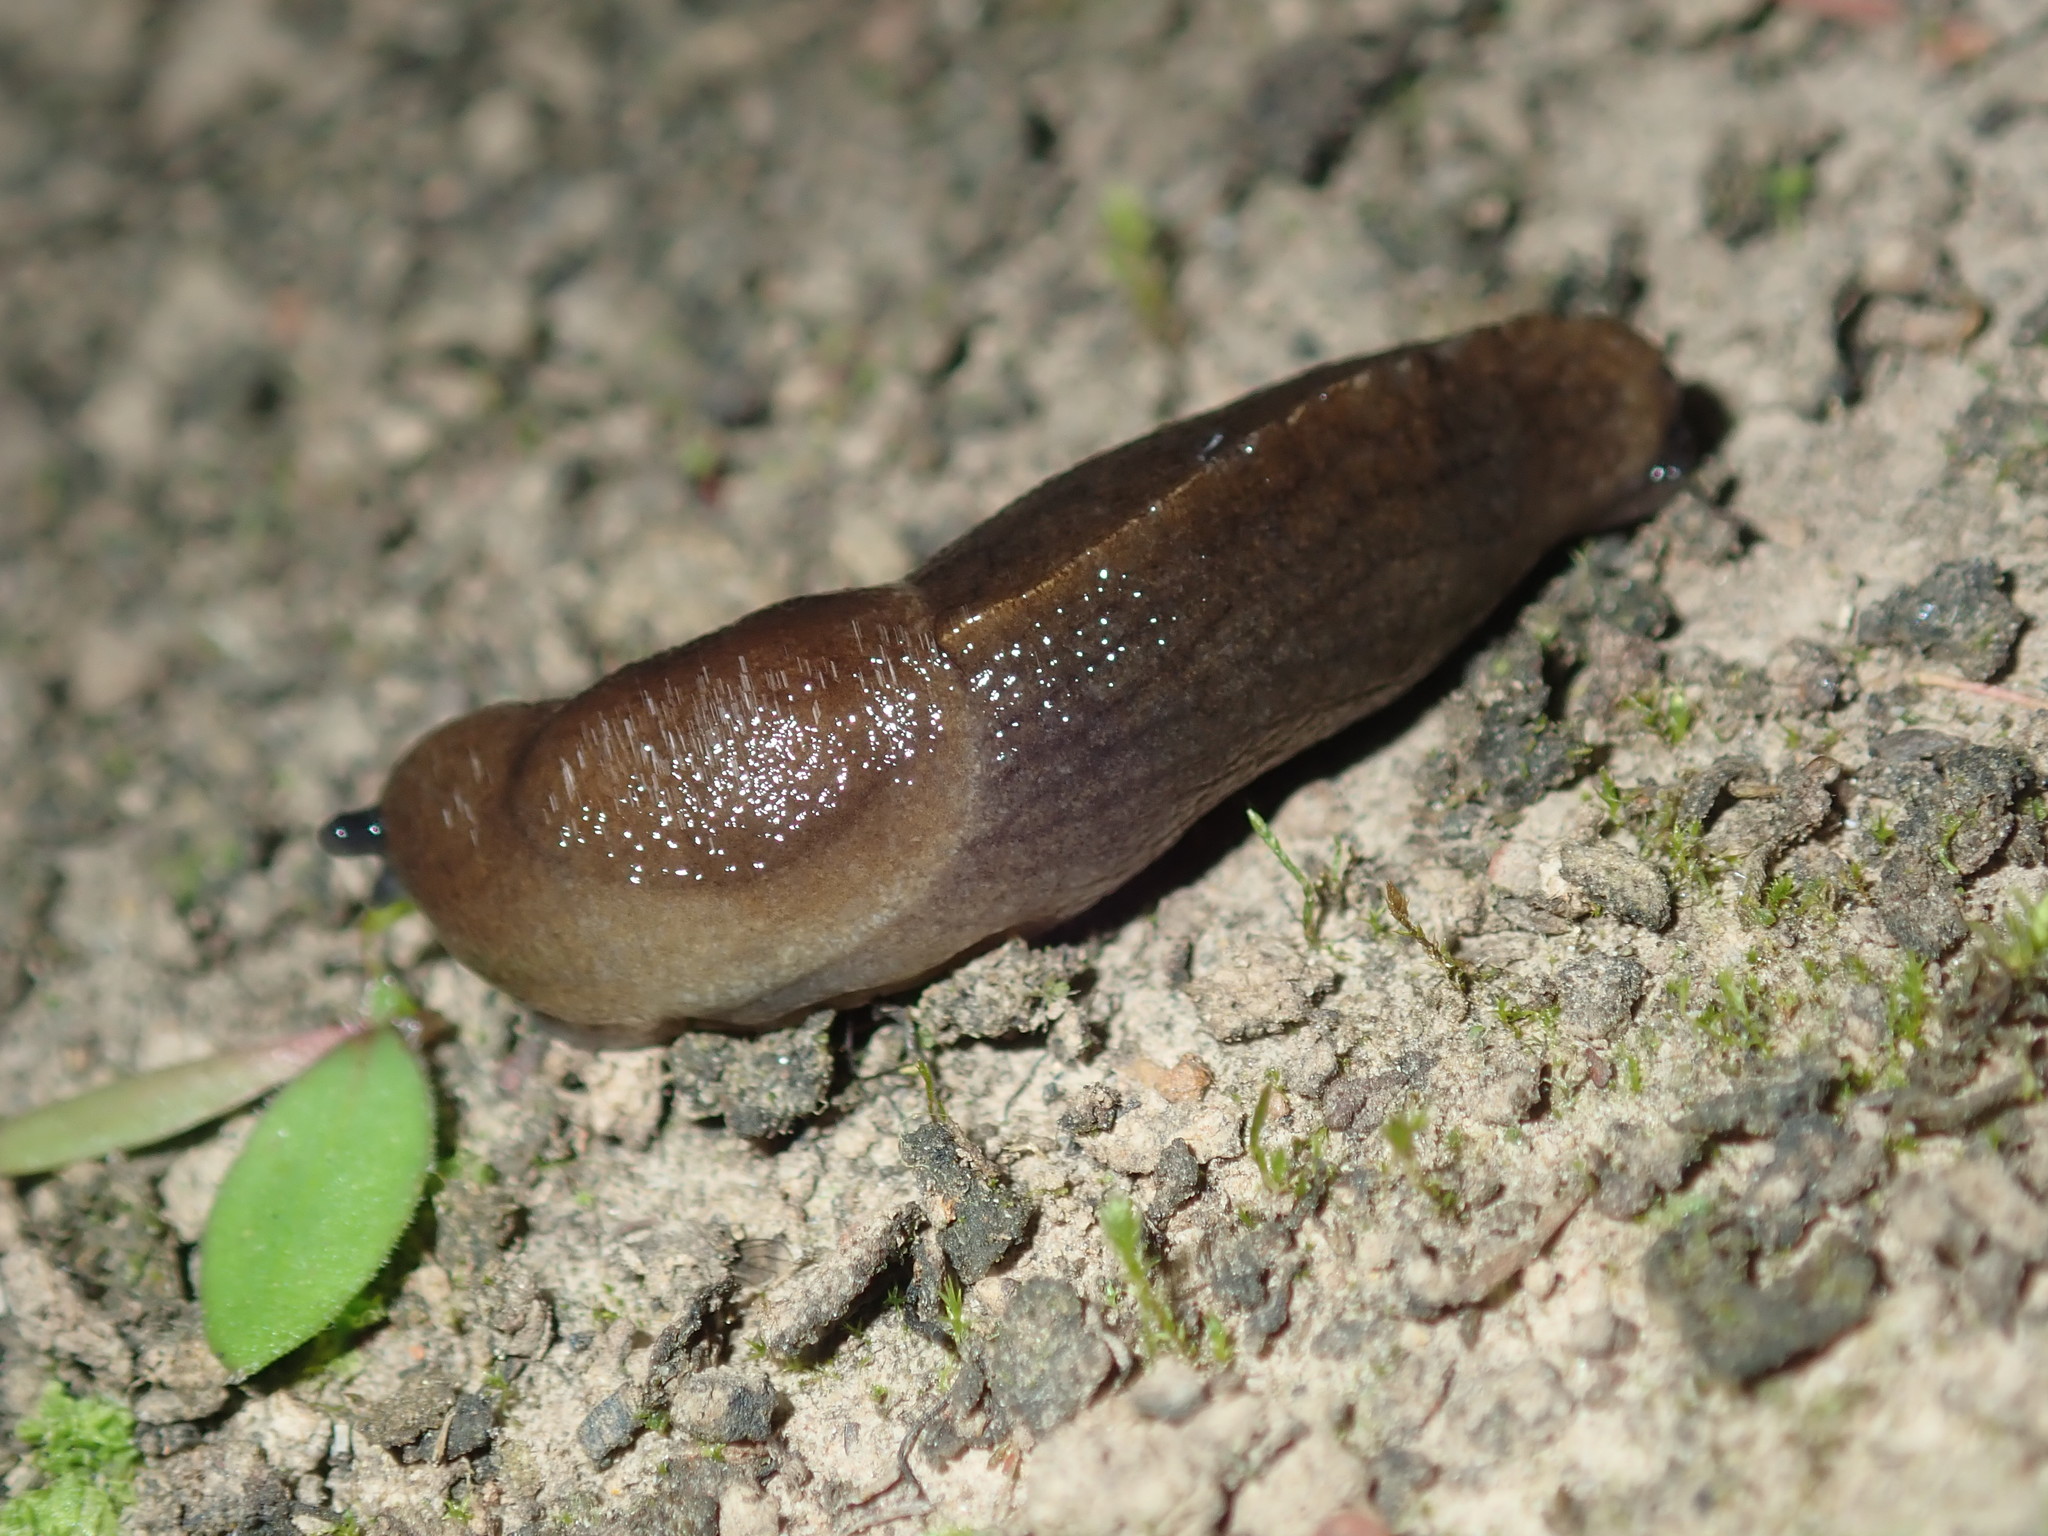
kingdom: Animalia
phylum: Mollusca
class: Gastropoda
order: Stylommatophora
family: Milacidae
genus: Milax
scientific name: Milax gagates
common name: Greenhouse slug
